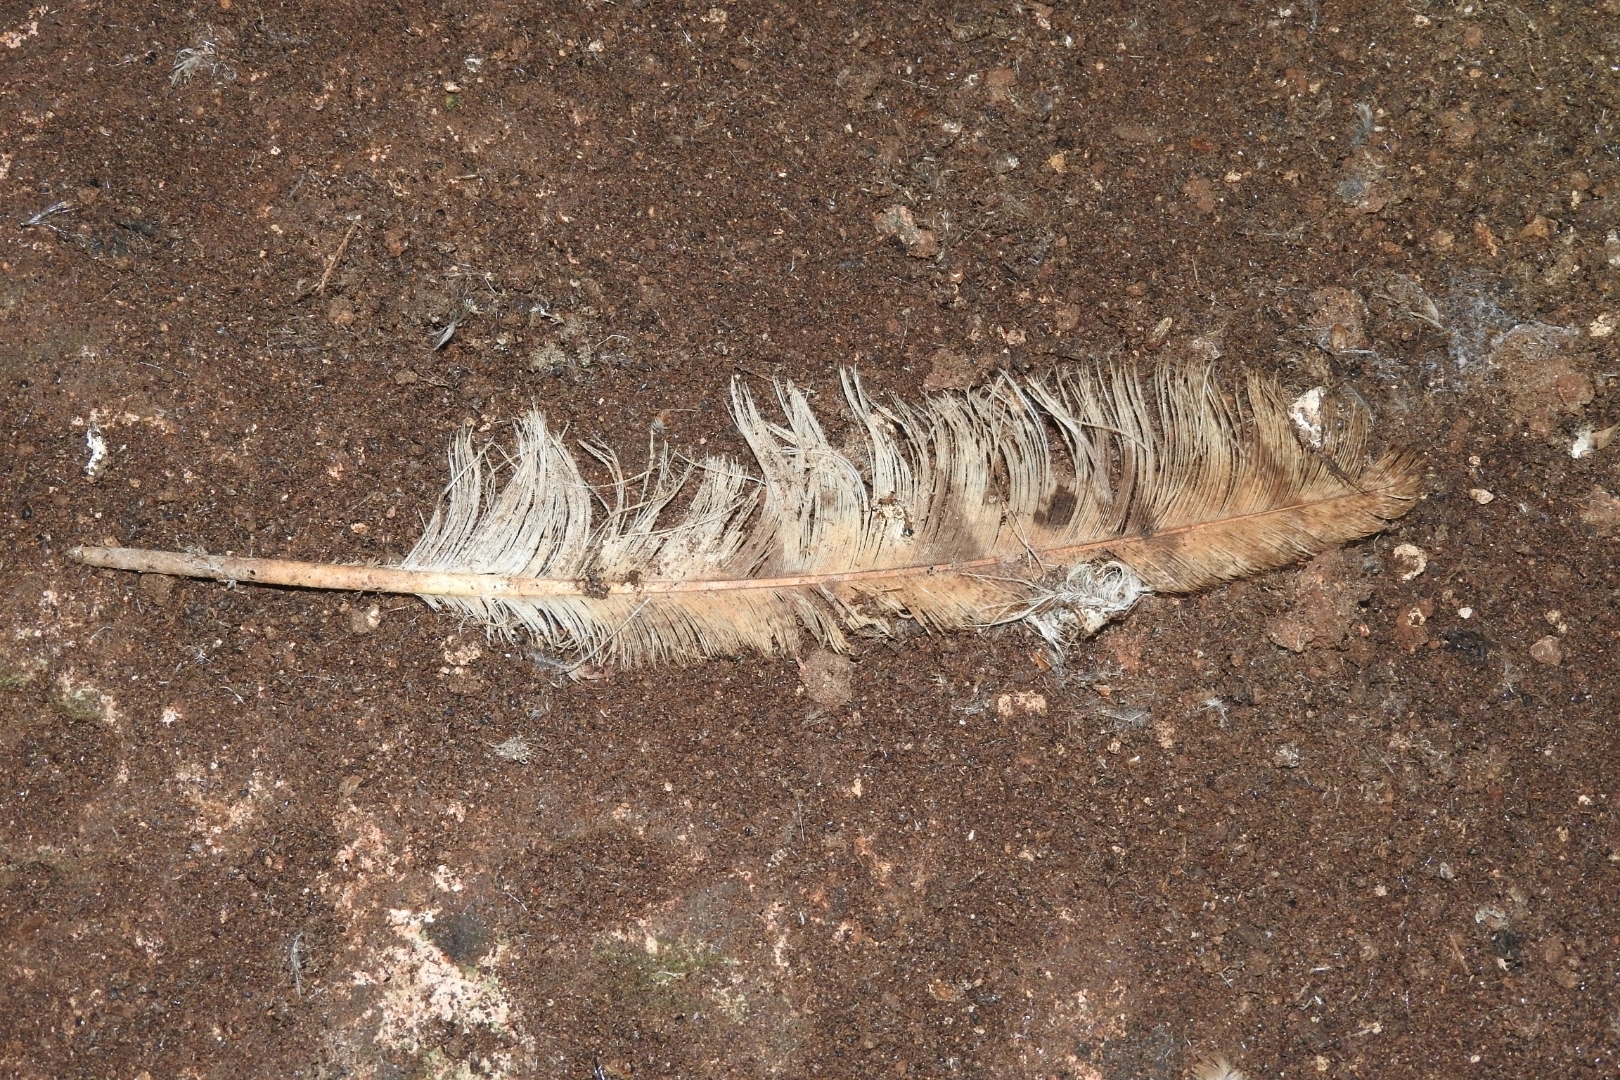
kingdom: Animalia
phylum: Chordata
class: Aves
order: Strigiformes
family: Tytonidae
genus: Tyto
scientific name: Tyto alba
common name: Barn owl
